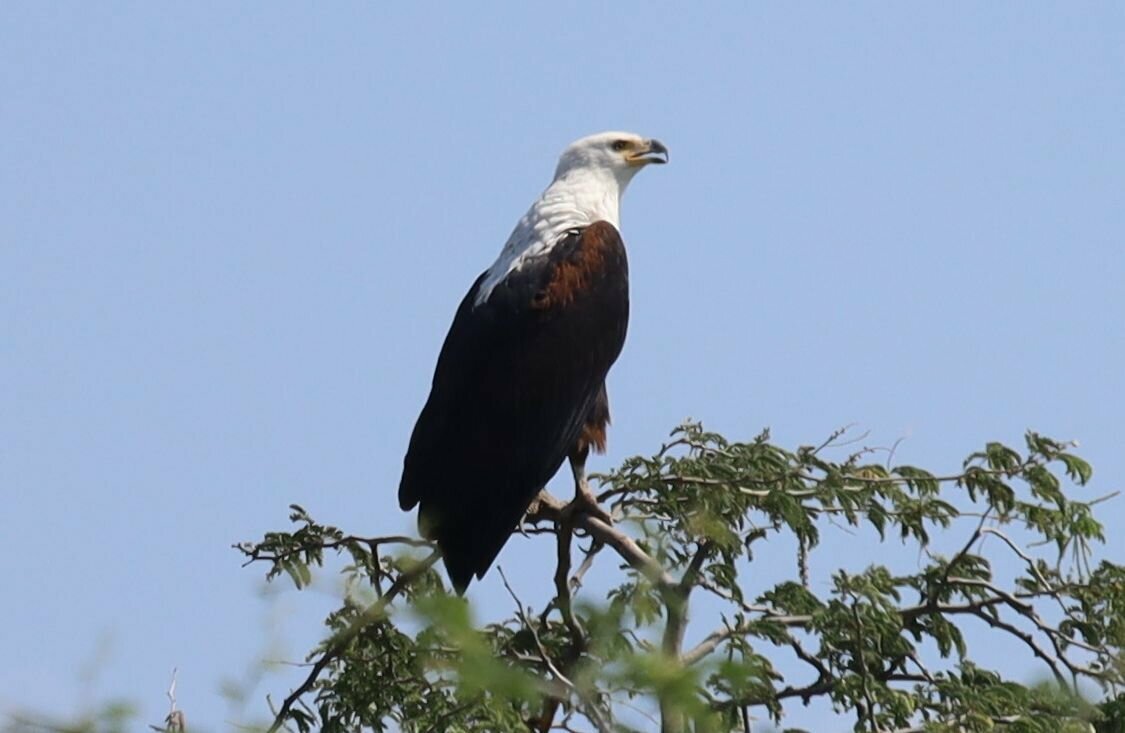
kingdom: Animalia
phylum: Chordata
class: Aves
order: Accipitriformes
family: Accipitridae
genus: Haliaeetus
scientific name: Haliaeetus vocifer
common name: African fish eagle
